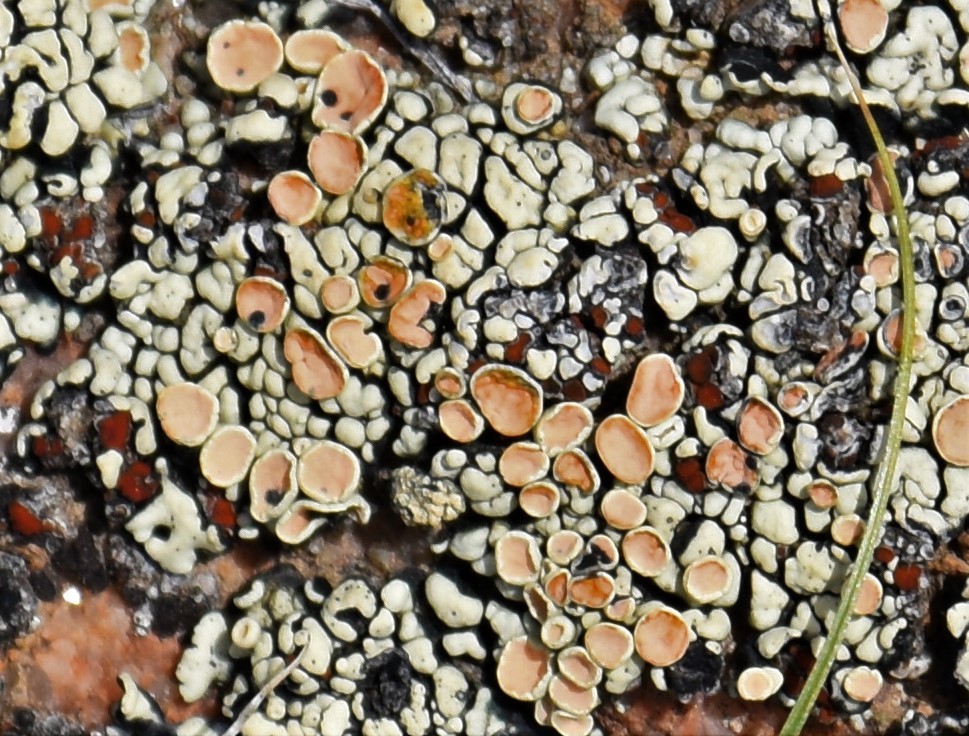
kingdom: Fungi
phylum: Ascomycota
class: Lecanoromycetes
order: Lecanorales
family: Lecanoraceae
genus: Omphalodina
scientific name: Omphalodina chrysoleuca
